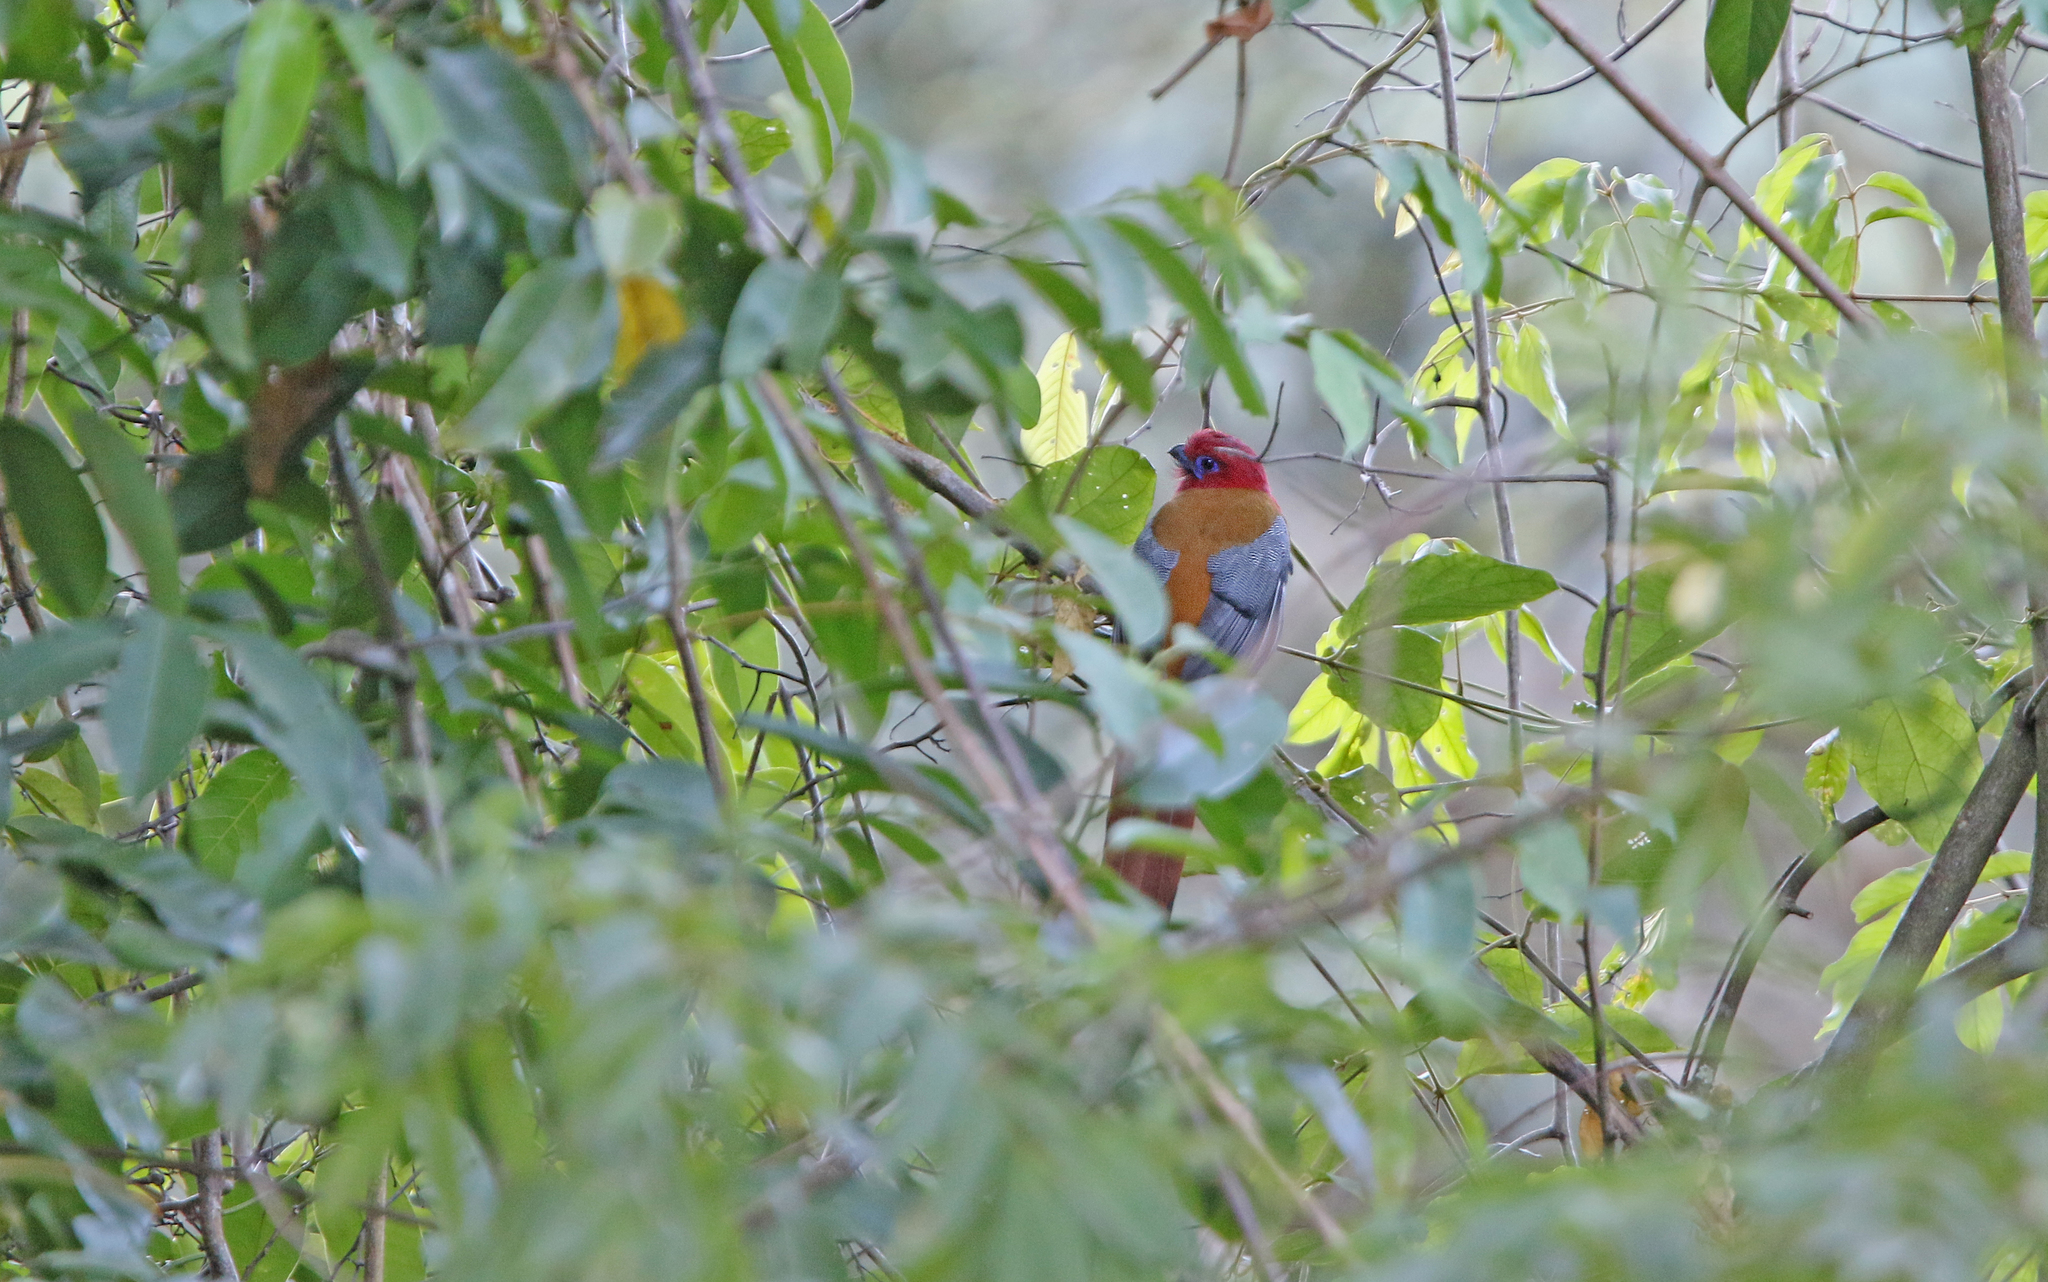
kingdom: Animalia
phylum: Chordata
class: Aves
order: Trogoniformes
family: Trogonidae
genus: Harpactes
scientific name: Harpactes erythrocephalus
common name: Red-headed trogon
